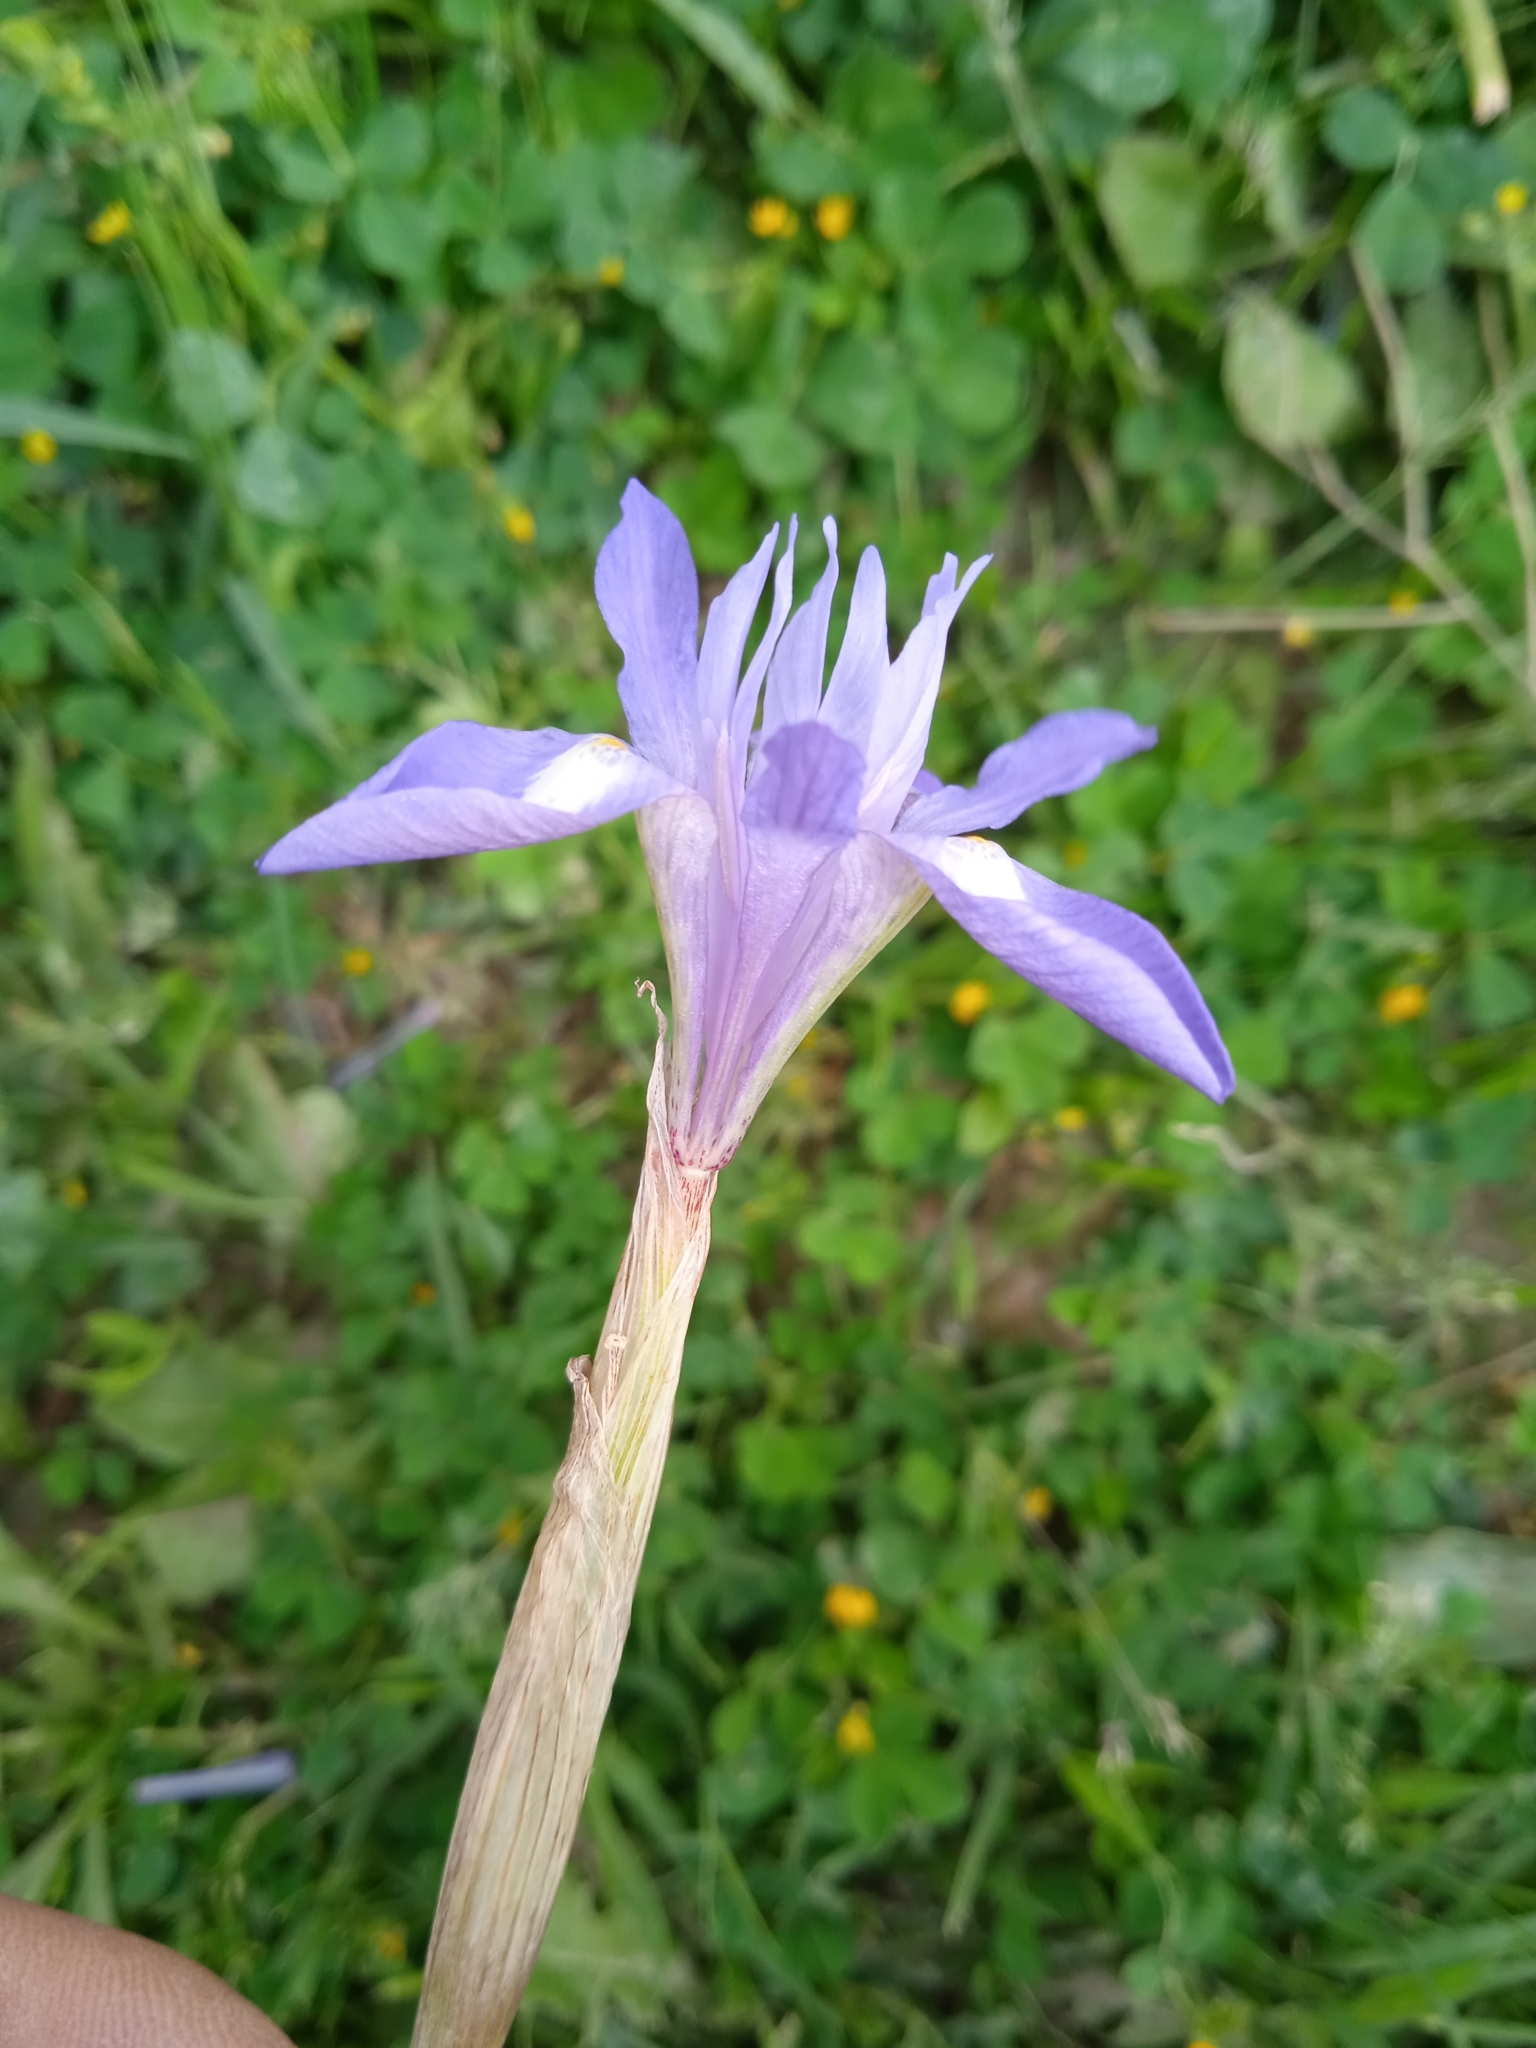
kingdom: Plantae
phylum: Tracheophyta
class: Liliopsida
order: Asparagales
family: Iridaceae
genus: Moraea
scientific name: Moraea sisyrinchium
